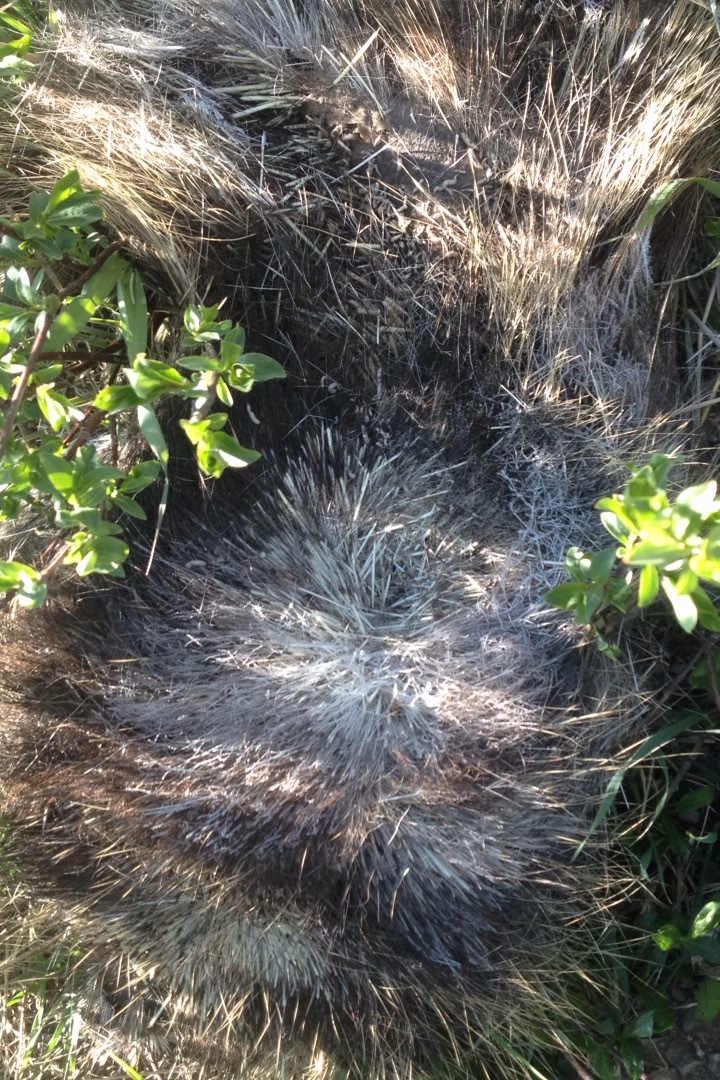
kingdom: Animalia
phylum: Chordata
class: Mammalia
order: Rodentia
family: Erethizontidae
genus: Erethizon
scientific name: Erethizon dorsatus
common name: North american porcupine
